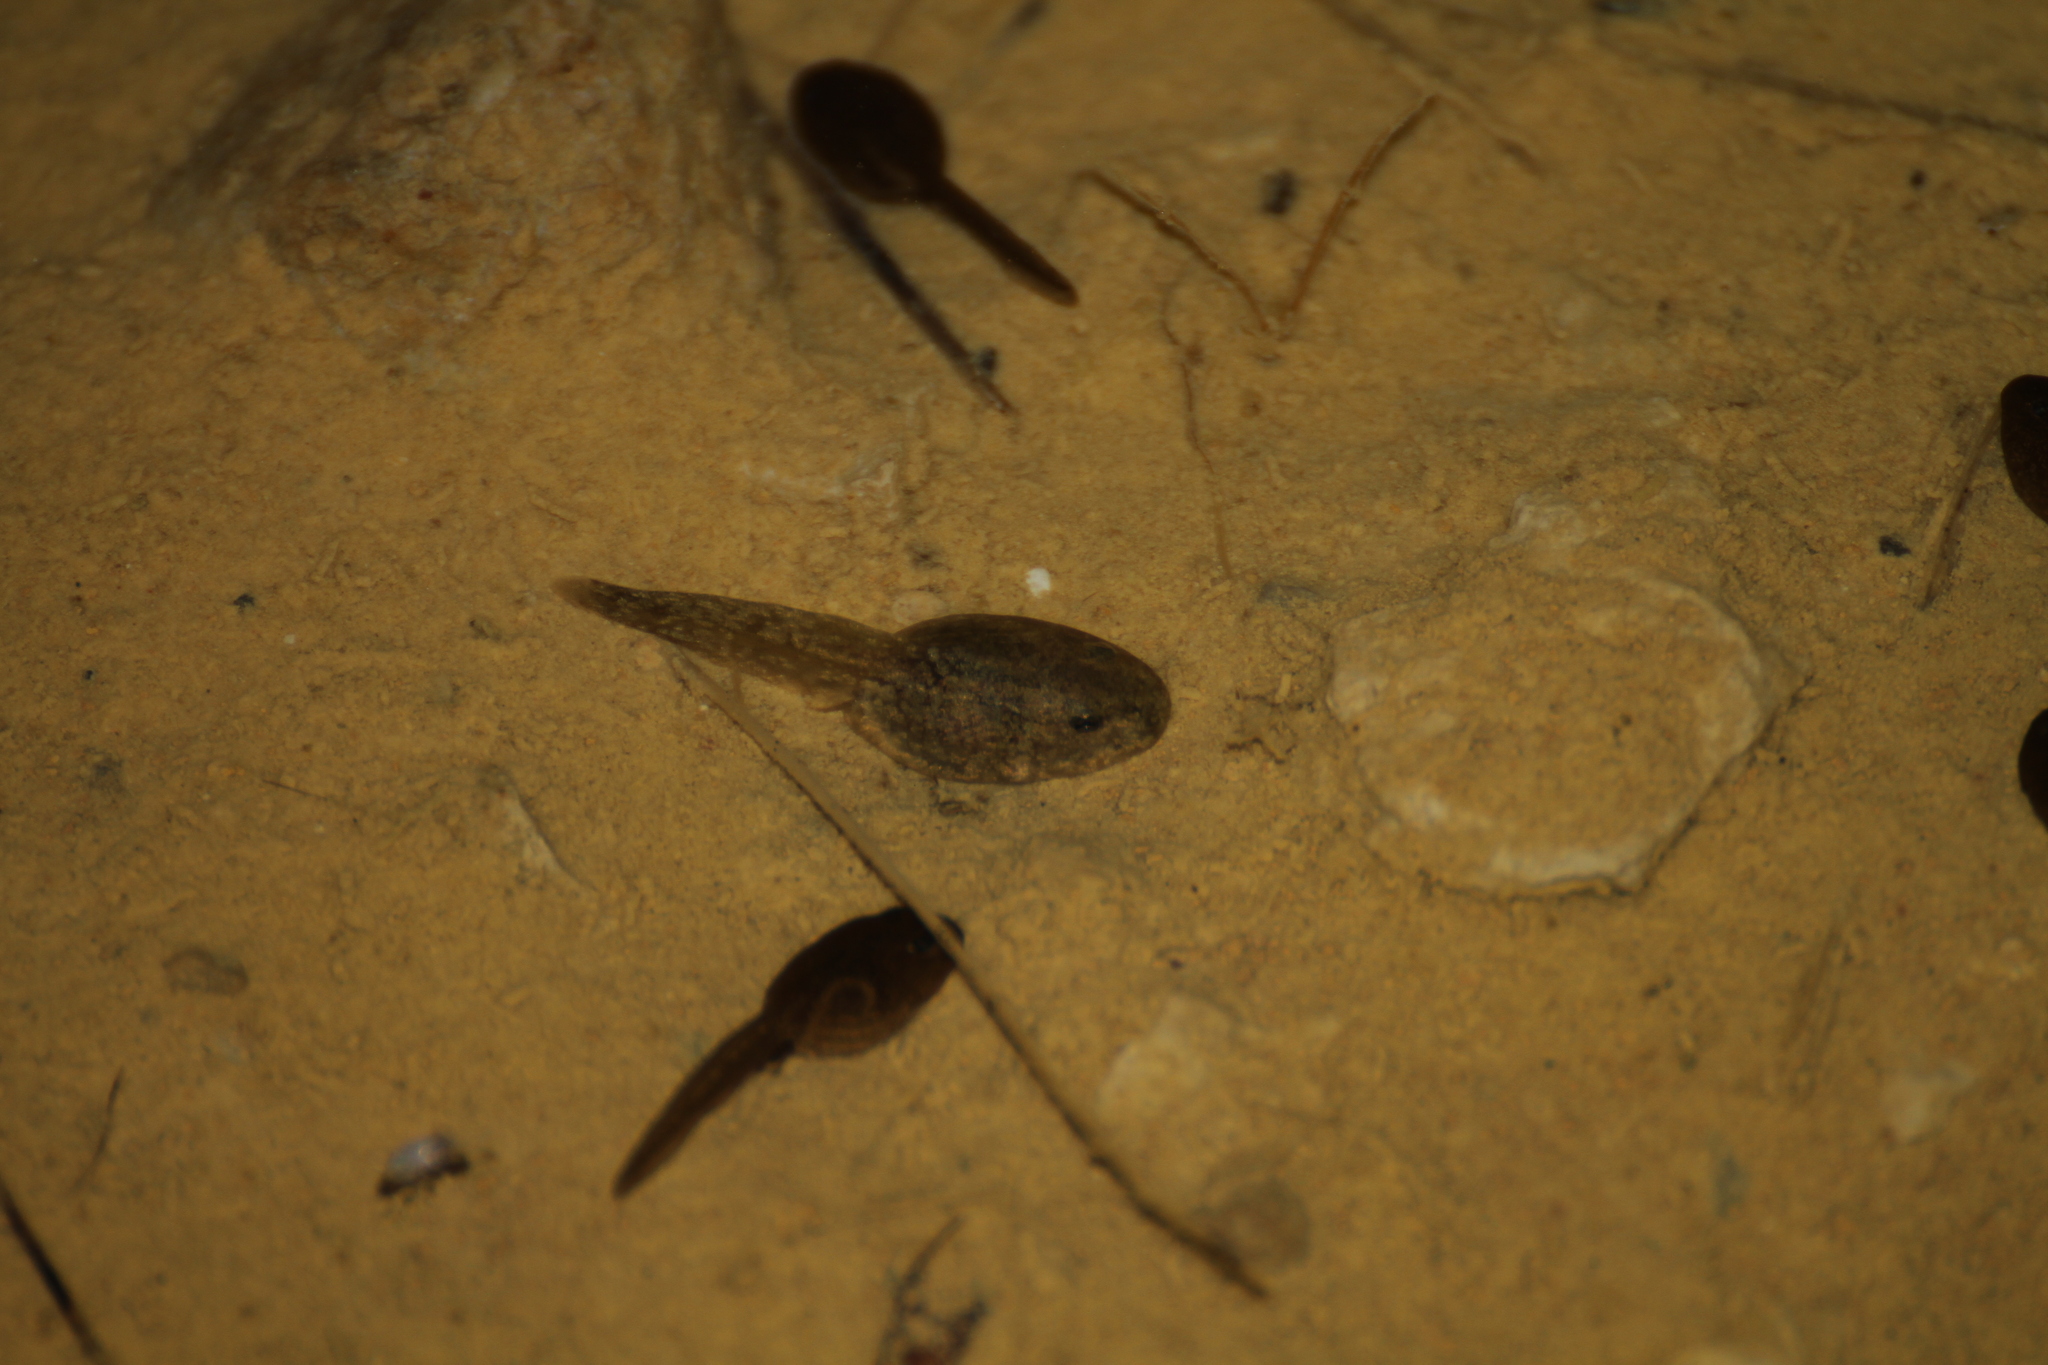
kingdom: Animalia
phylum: Chordata
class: Amphibia
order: Anura
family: Pelodytidae
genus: Pelodytes
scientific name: Pelodytes punctatus
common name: Parsley frog
